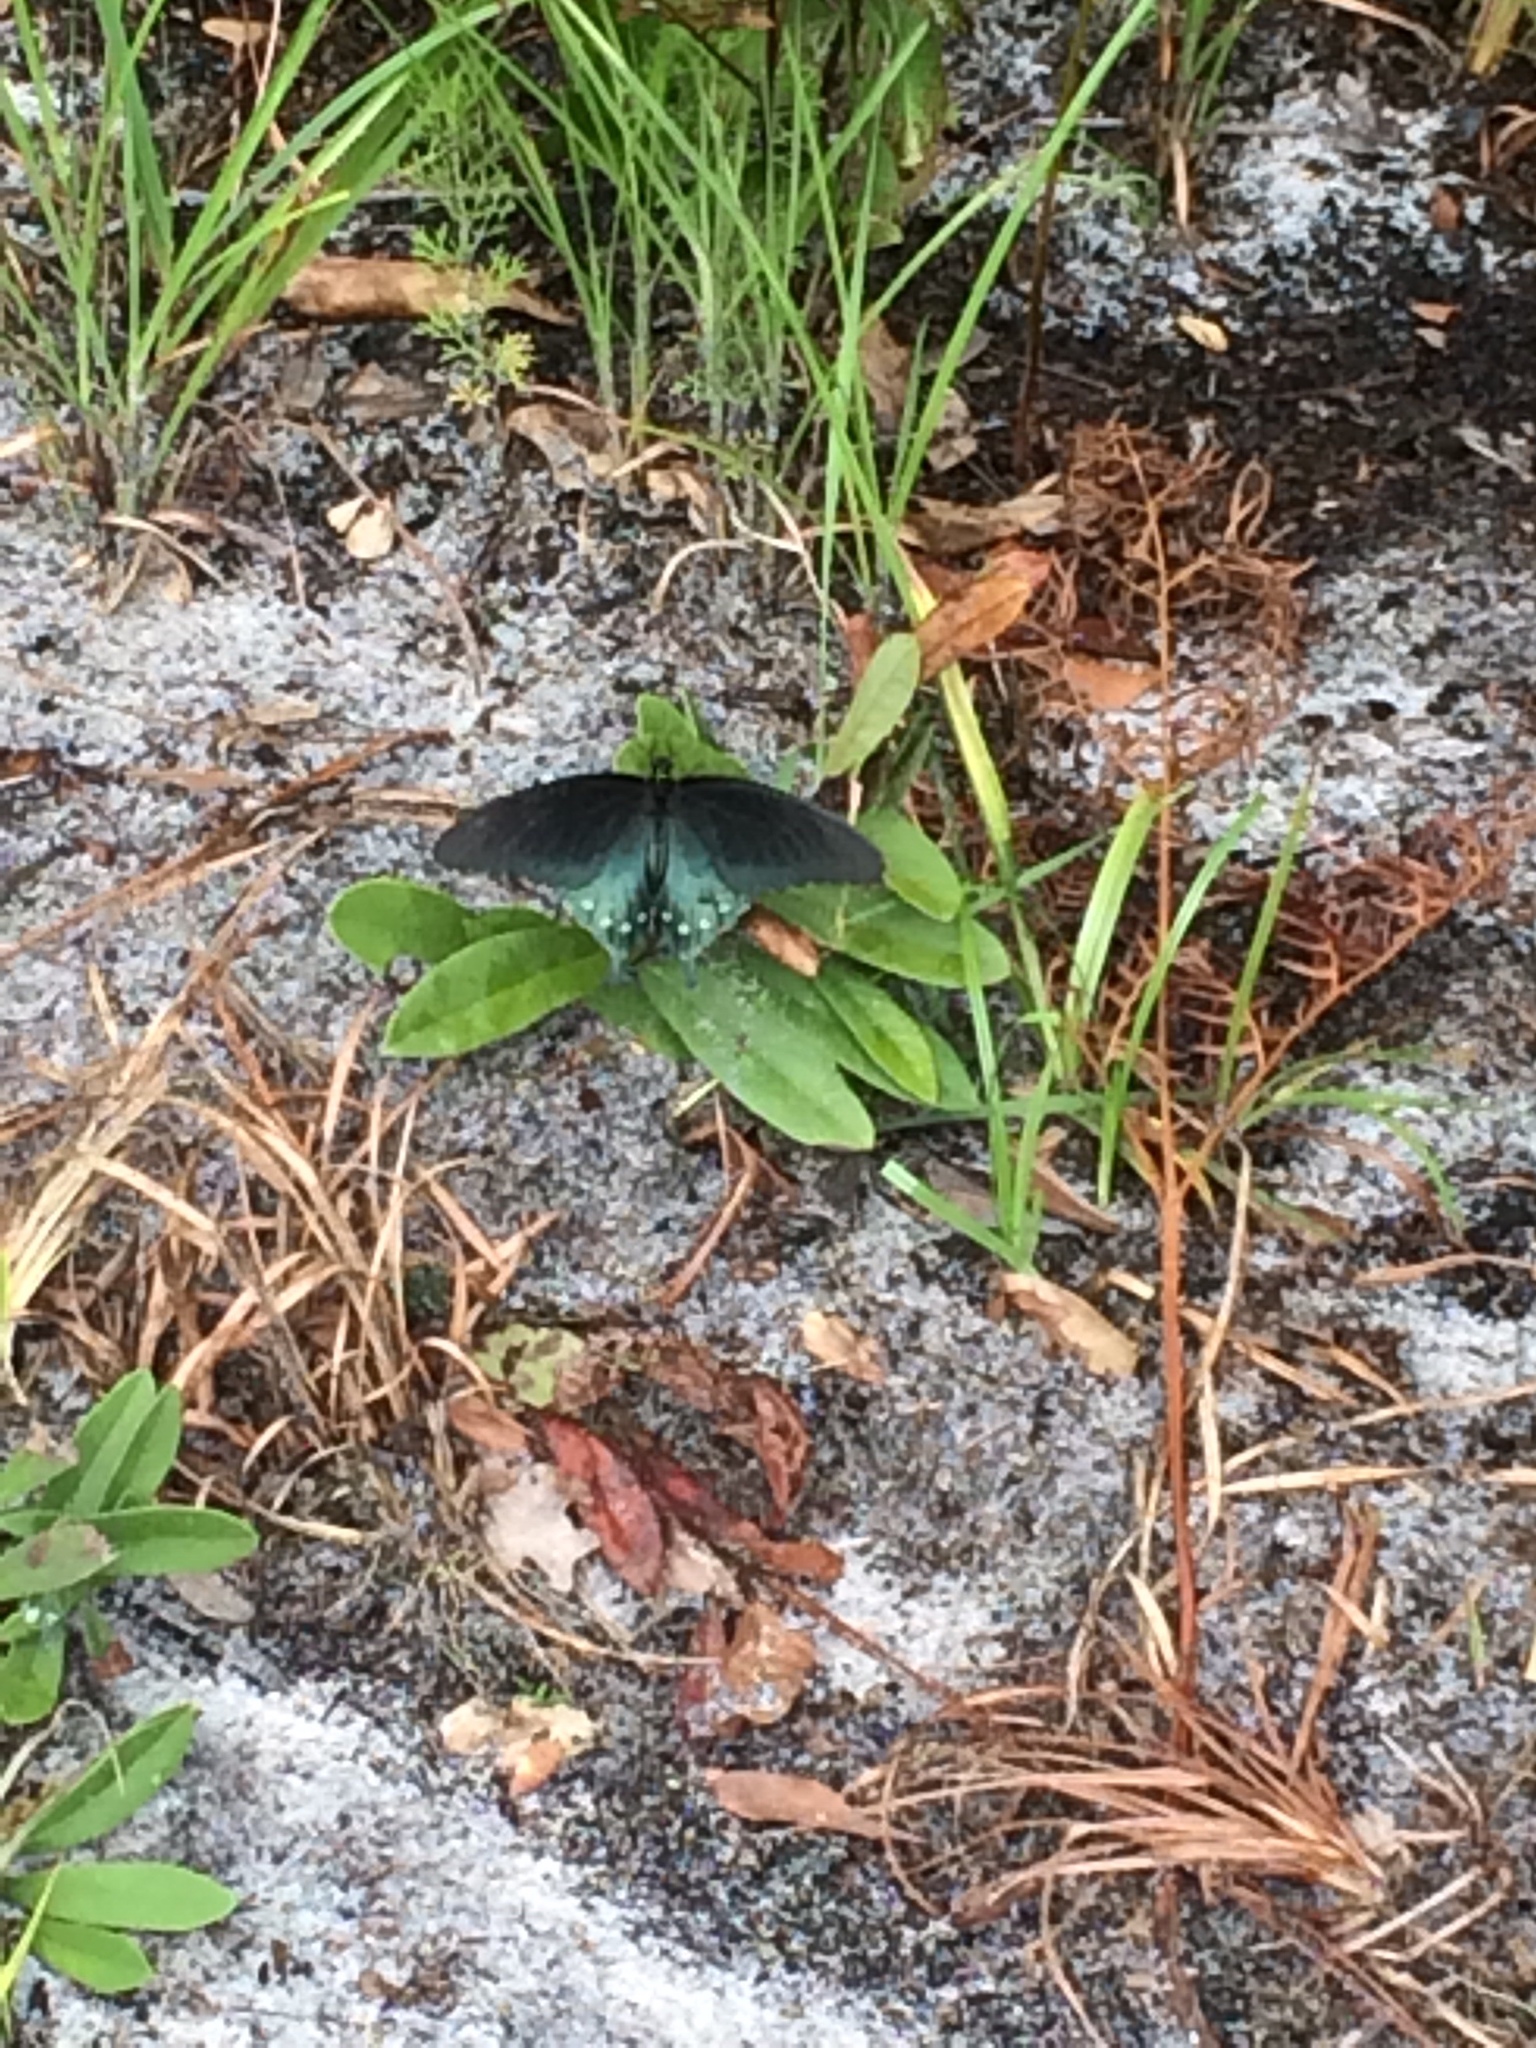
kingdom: Animalia
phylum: Arthropoda
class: Insecta
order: Lepidoptera
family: Papilionidae
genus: Battus
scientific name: Battus philenor
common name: Pipevine swallowtail
